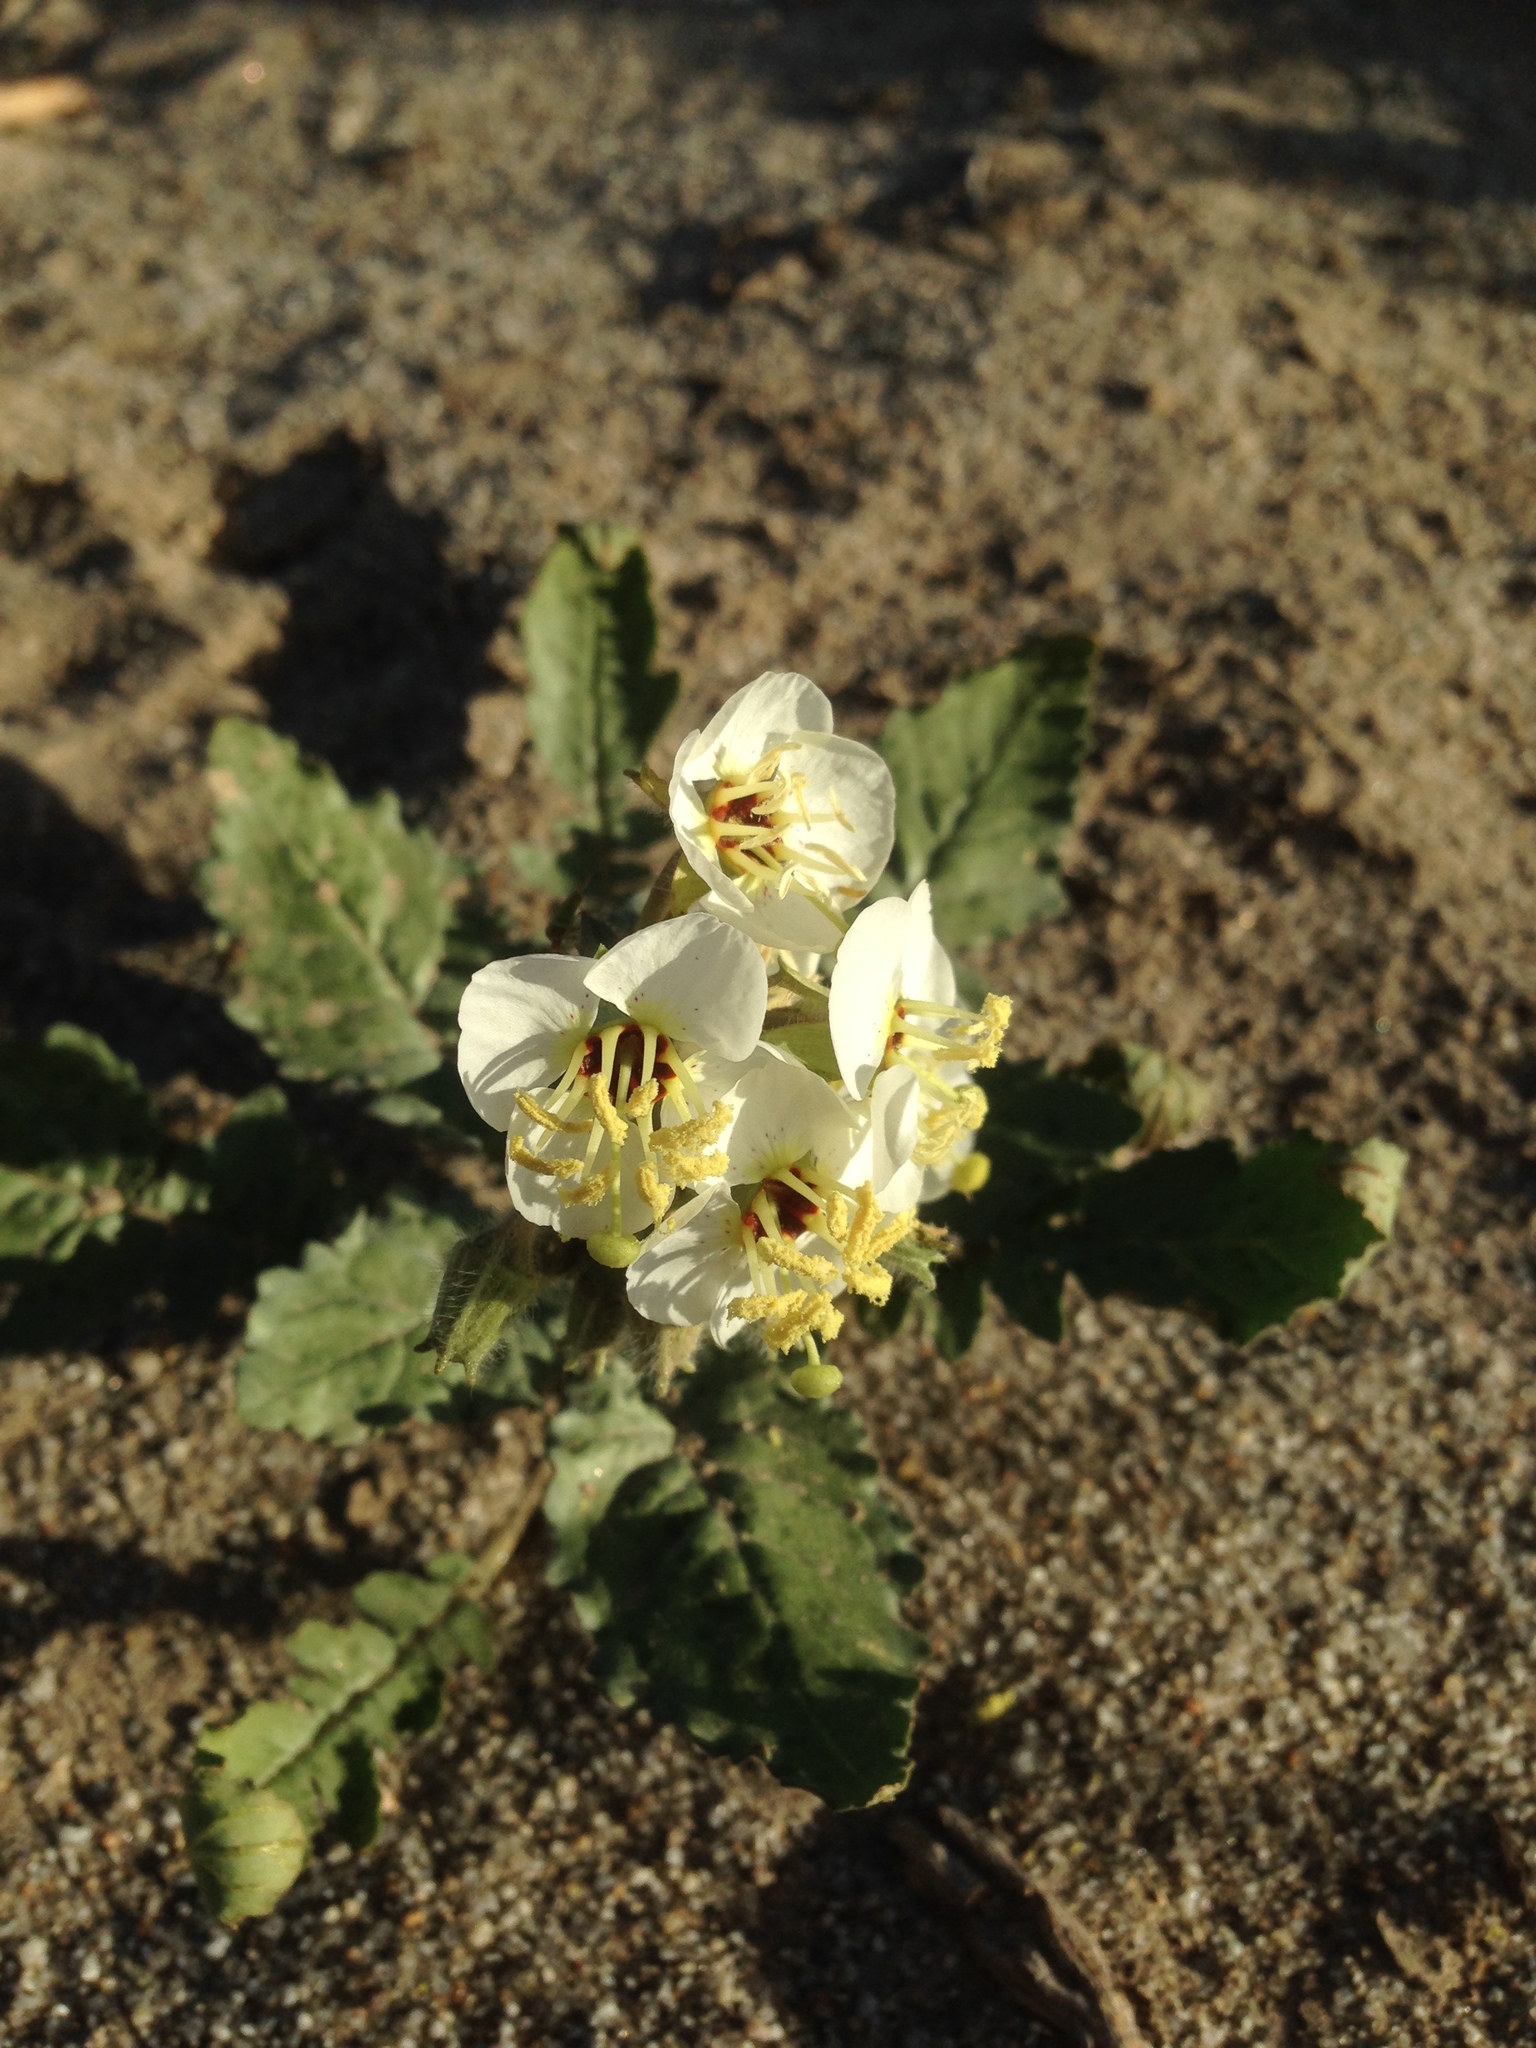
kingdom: Plantae
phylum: Tracheophyta
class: Magnoliopsida
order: Myrtales
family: Onagraceae
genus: Chylismia
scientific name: Chylismia claviformis
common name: Browneyes
